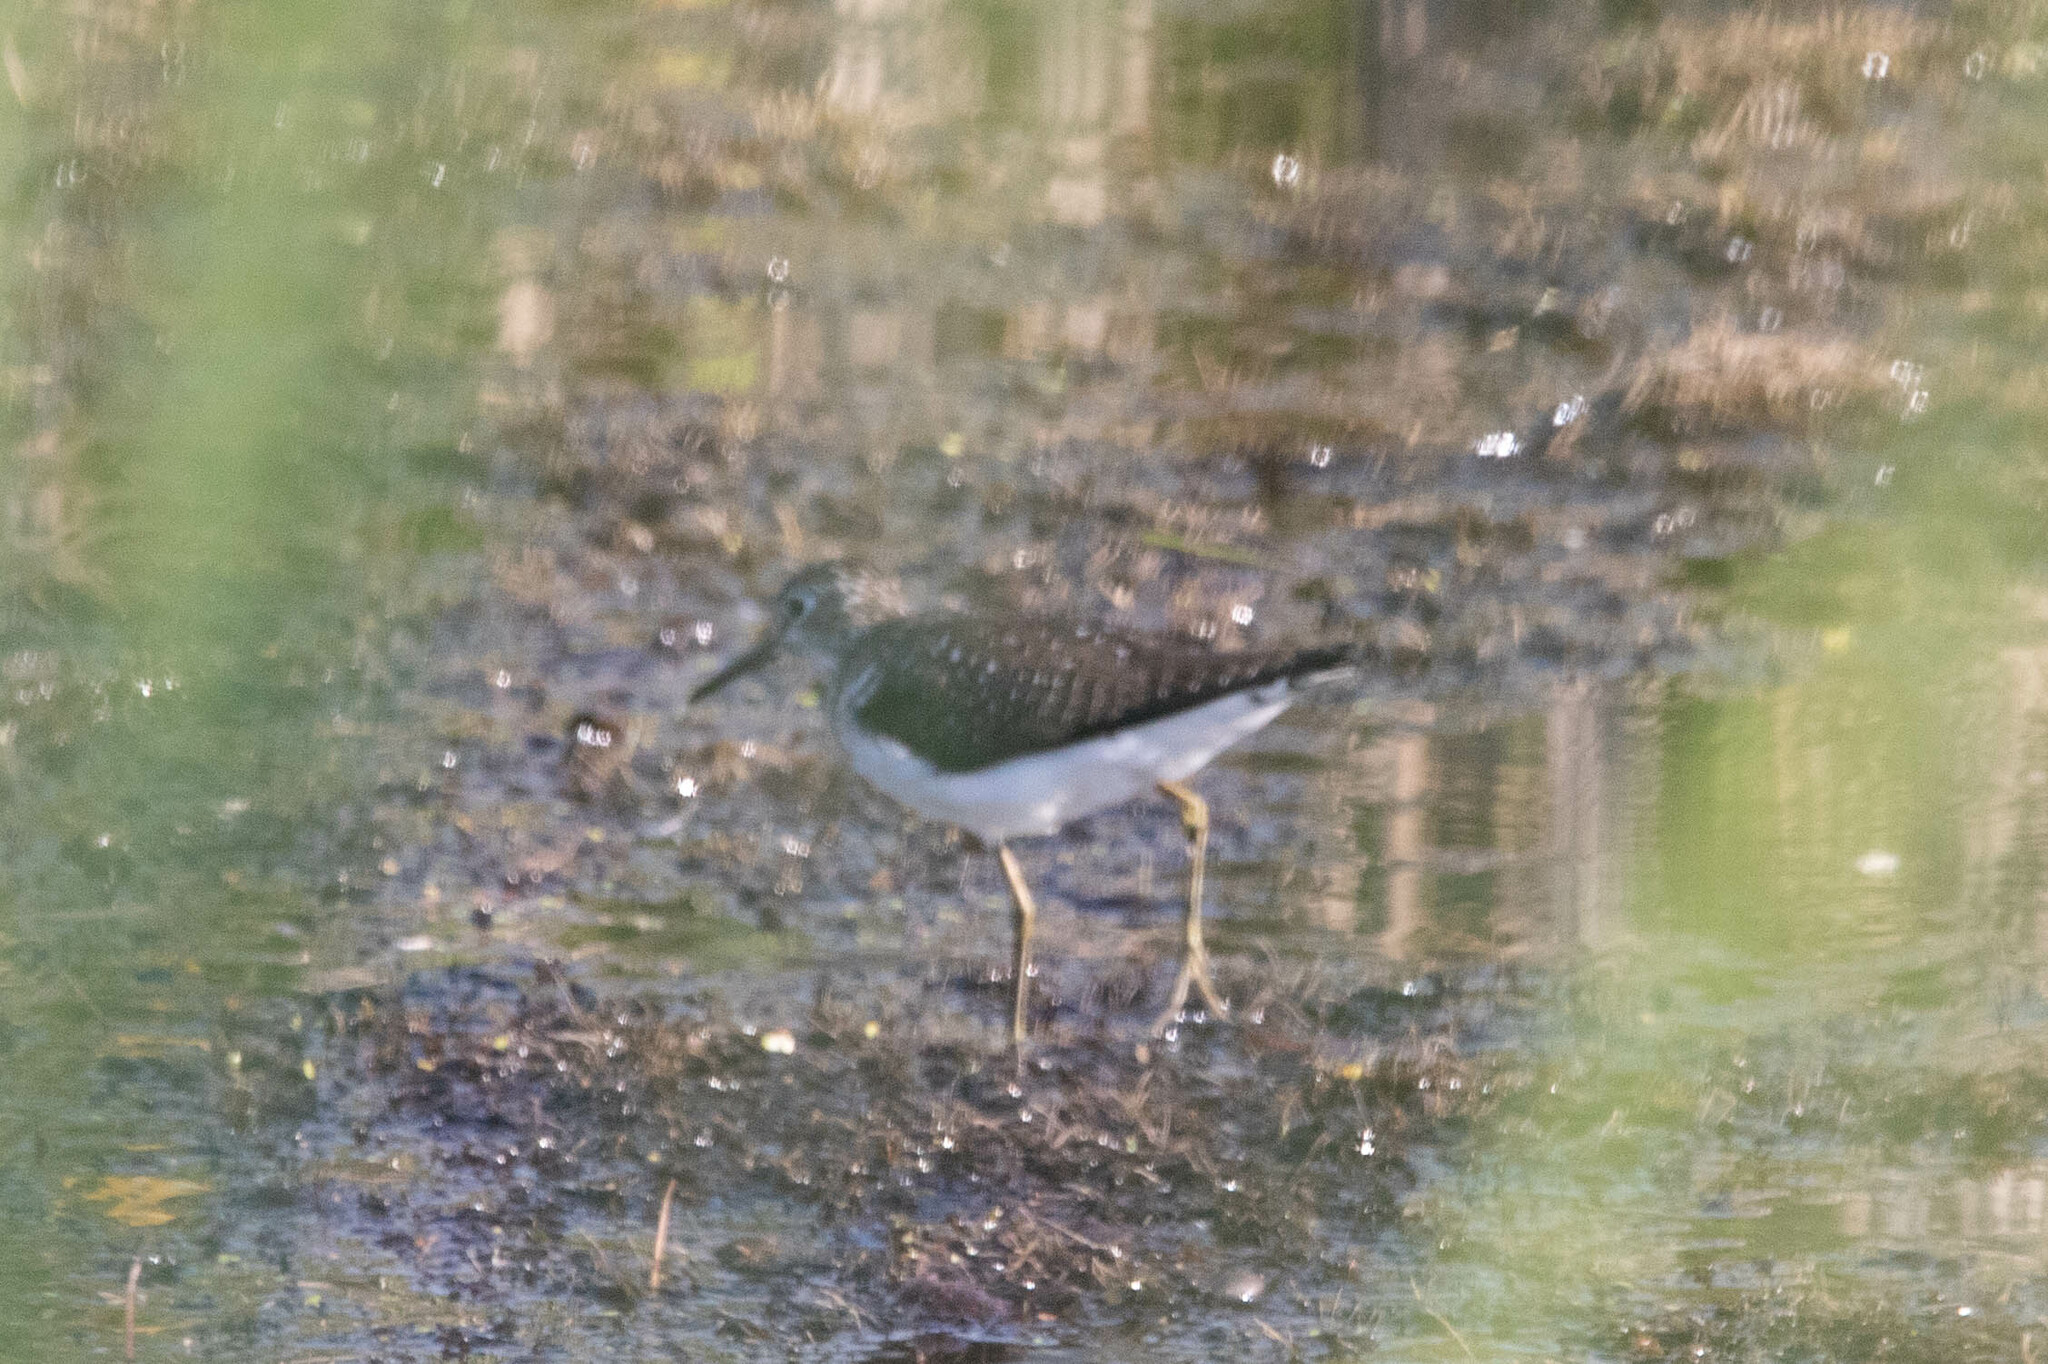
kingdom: Animalia
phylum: Chordata
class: Aves
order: Charadriiformes
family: Scolopacidae
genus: Tringa
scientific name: Tringa solitaria
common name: Solitary sandpiper
